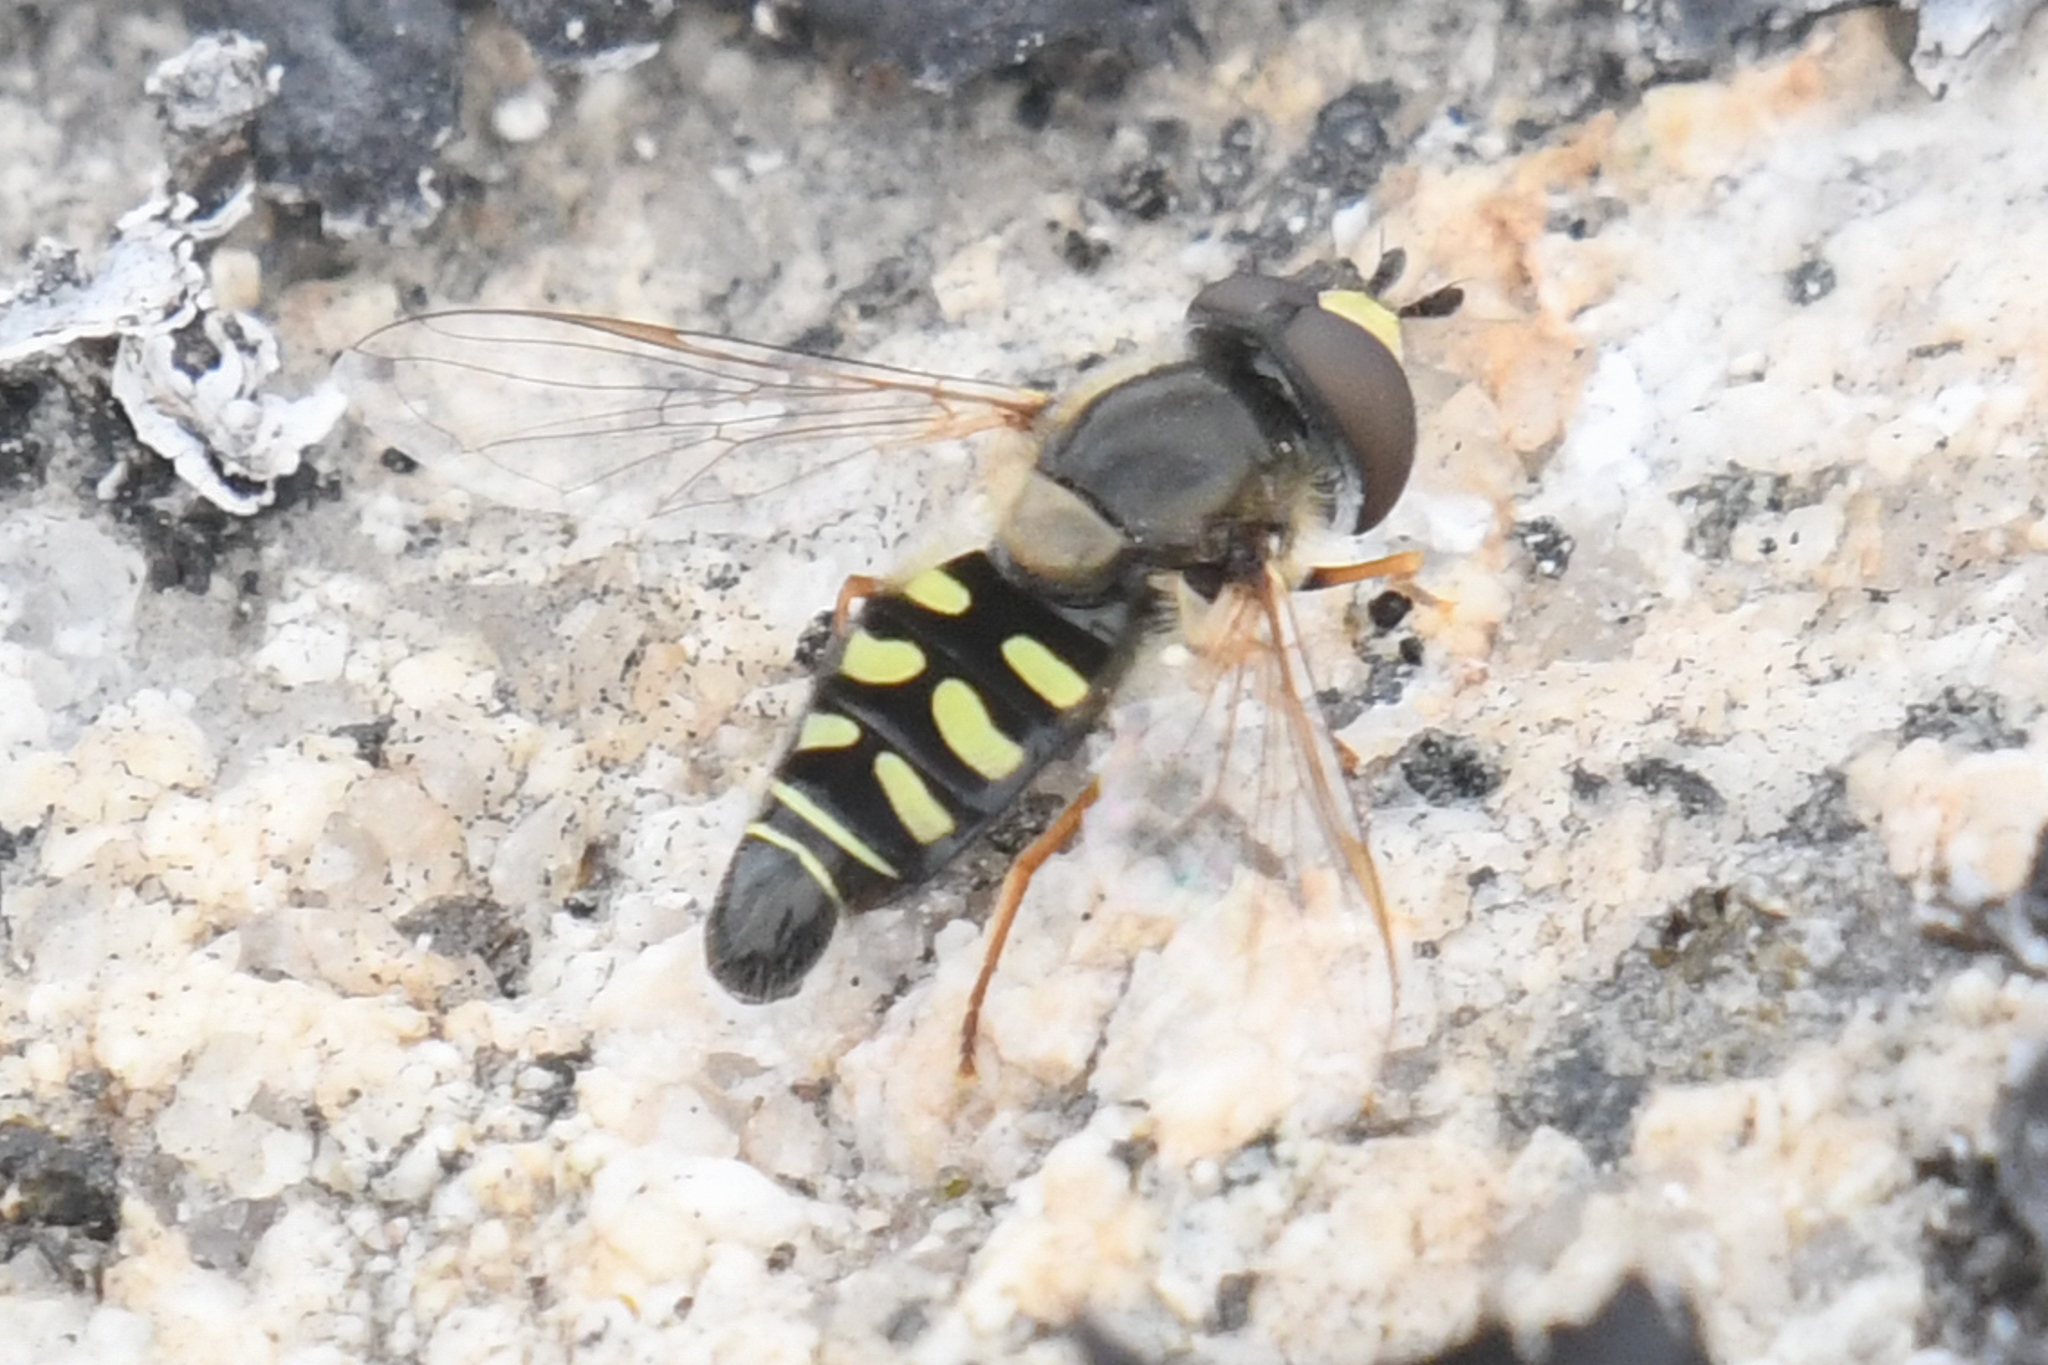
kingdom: Animalia
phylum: Arthropoda
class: Insecta
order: Diptera
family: Syrphidae
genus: Eupeodes
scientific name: Eupeodes volucris
